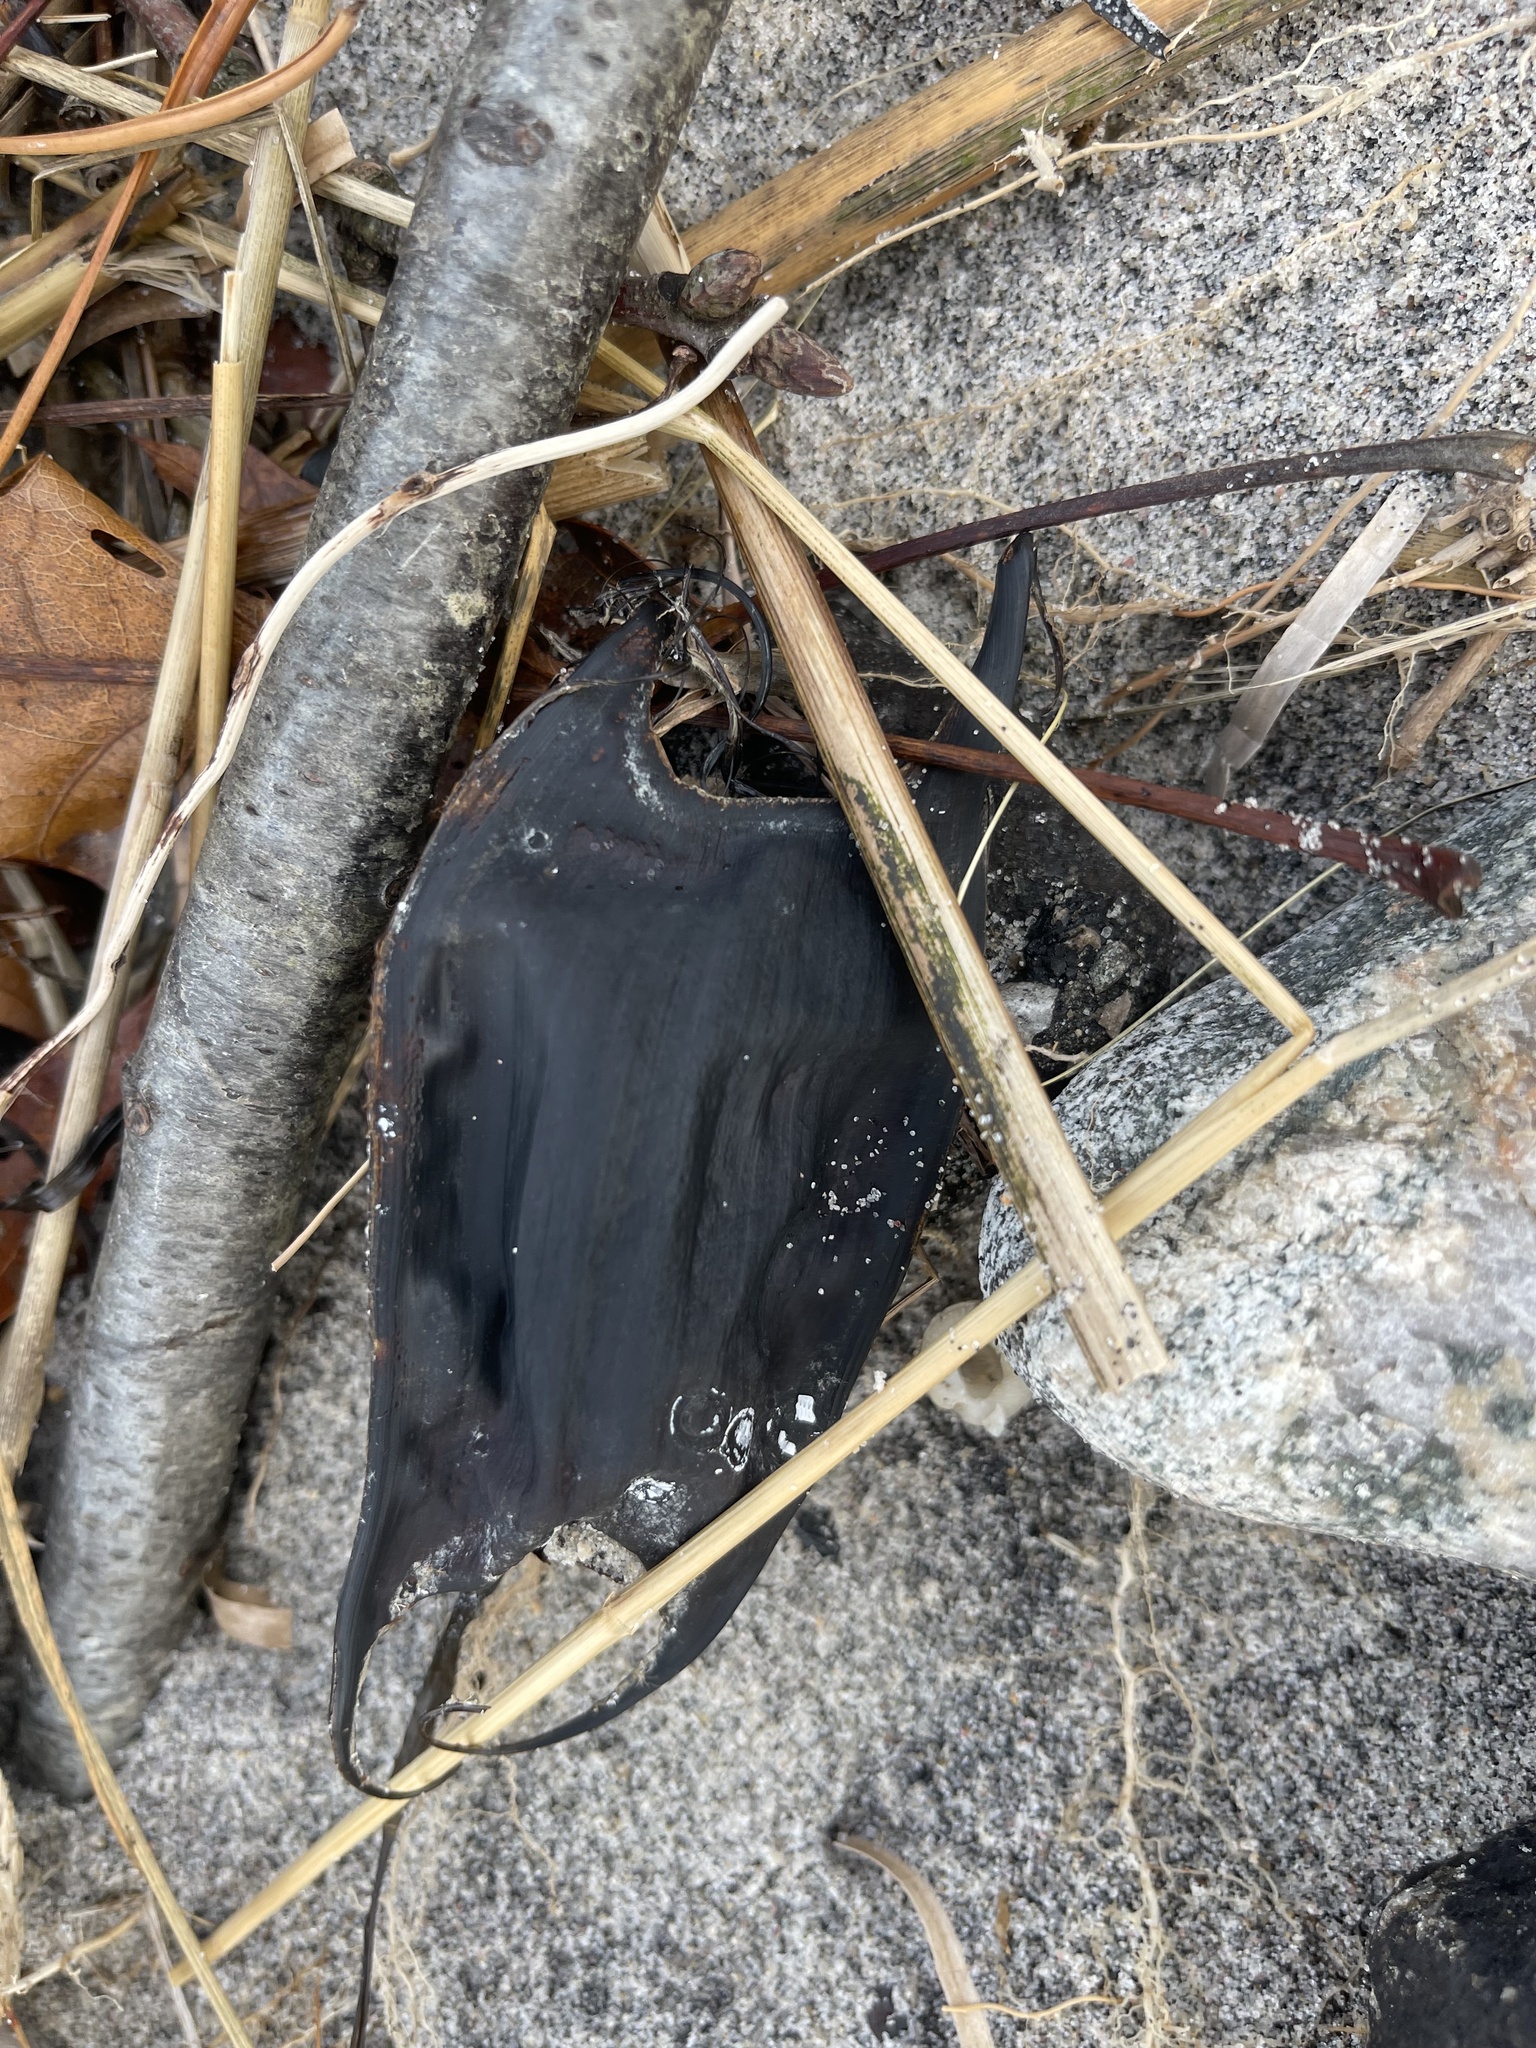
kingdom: Animalia
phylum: Chordata
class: Elasmobranchii
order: Rajiformes
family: Rajidae
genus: Raja
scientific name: Raja eglanteria
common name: Clearnose skate
